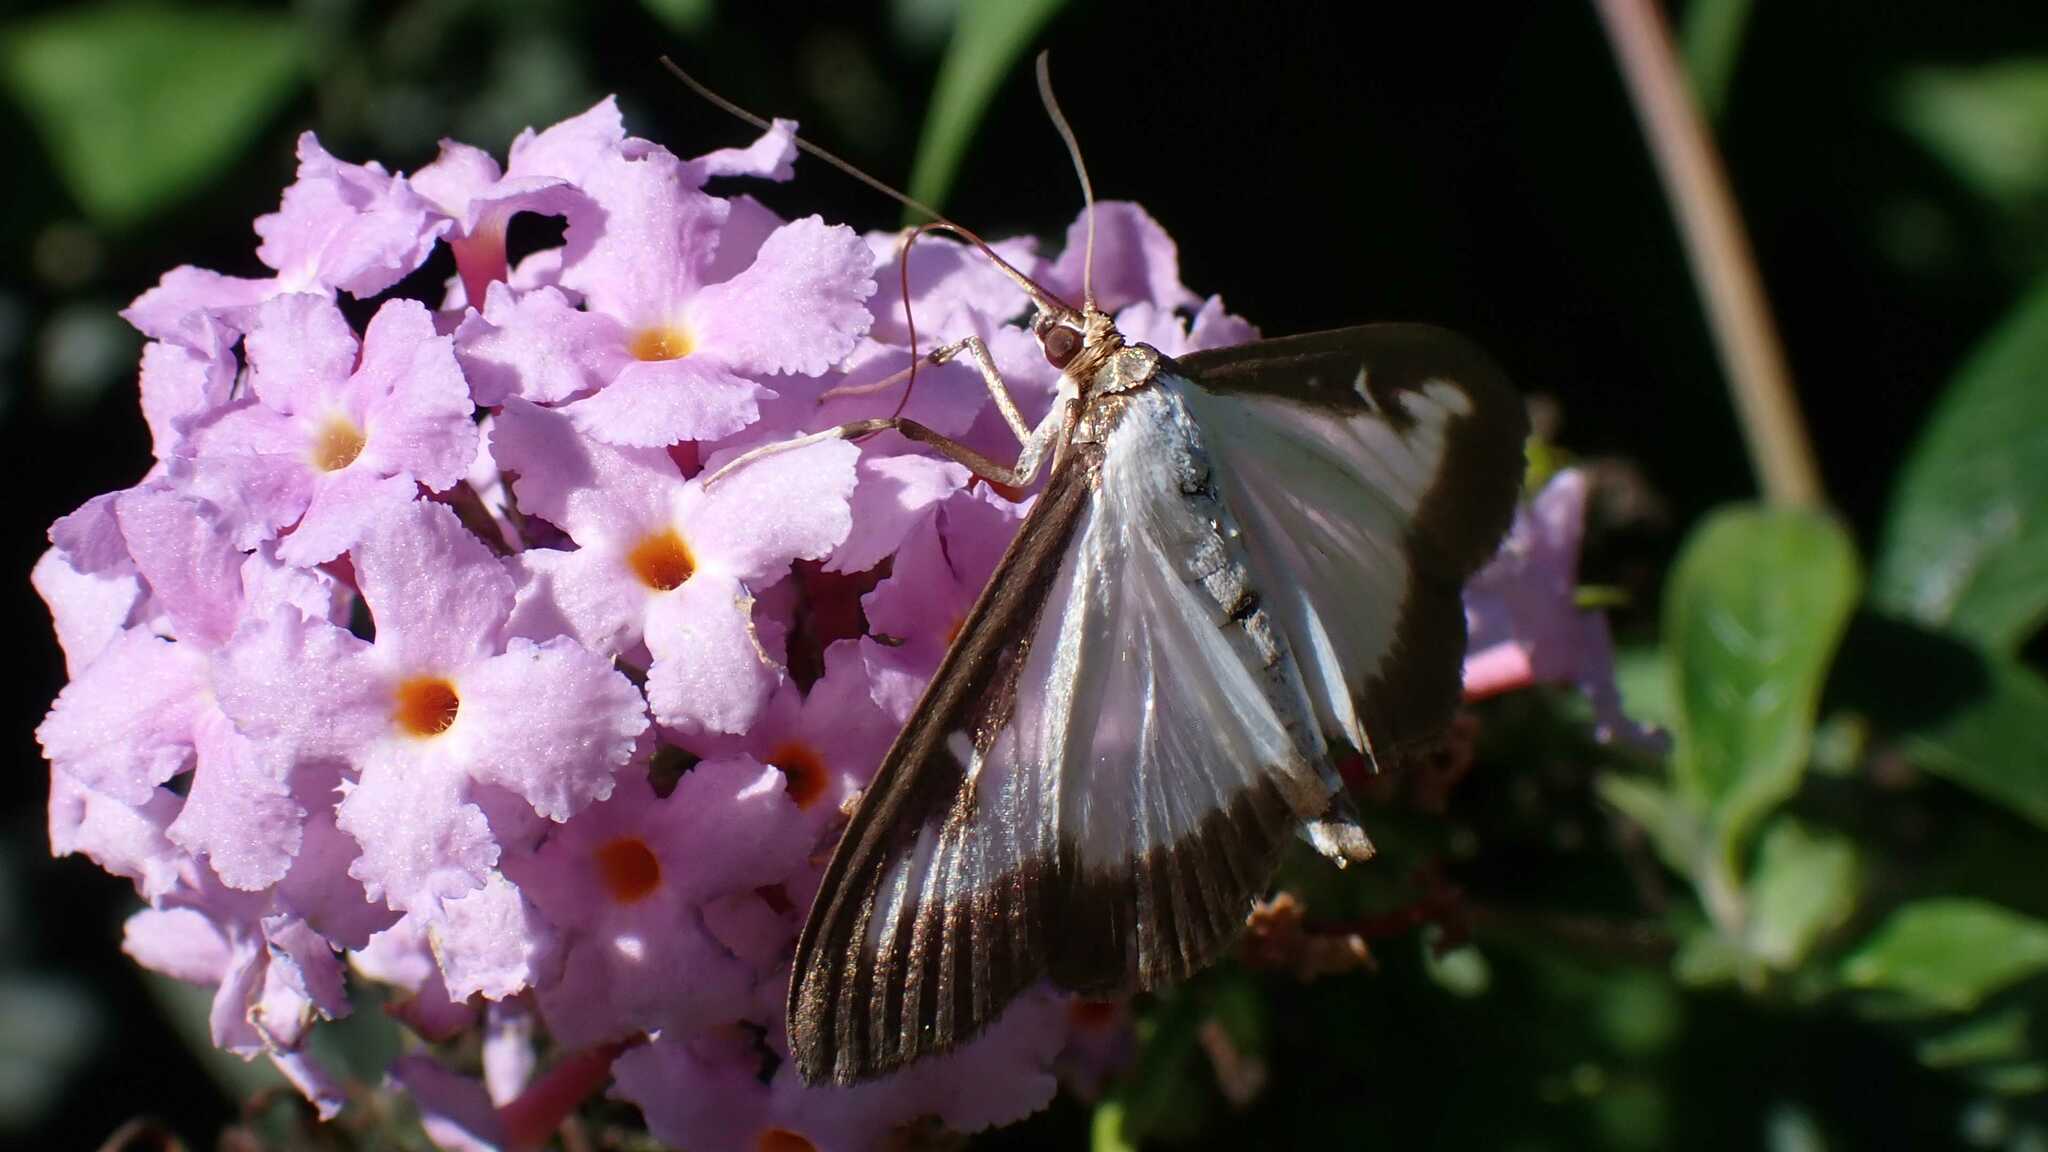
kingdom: Animalia
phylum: Arthropoda
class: Insecta
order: Lepidoptera
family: Crambidae
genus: Cydalima
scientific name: Cydalima perspectalis
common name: Box tree moth
